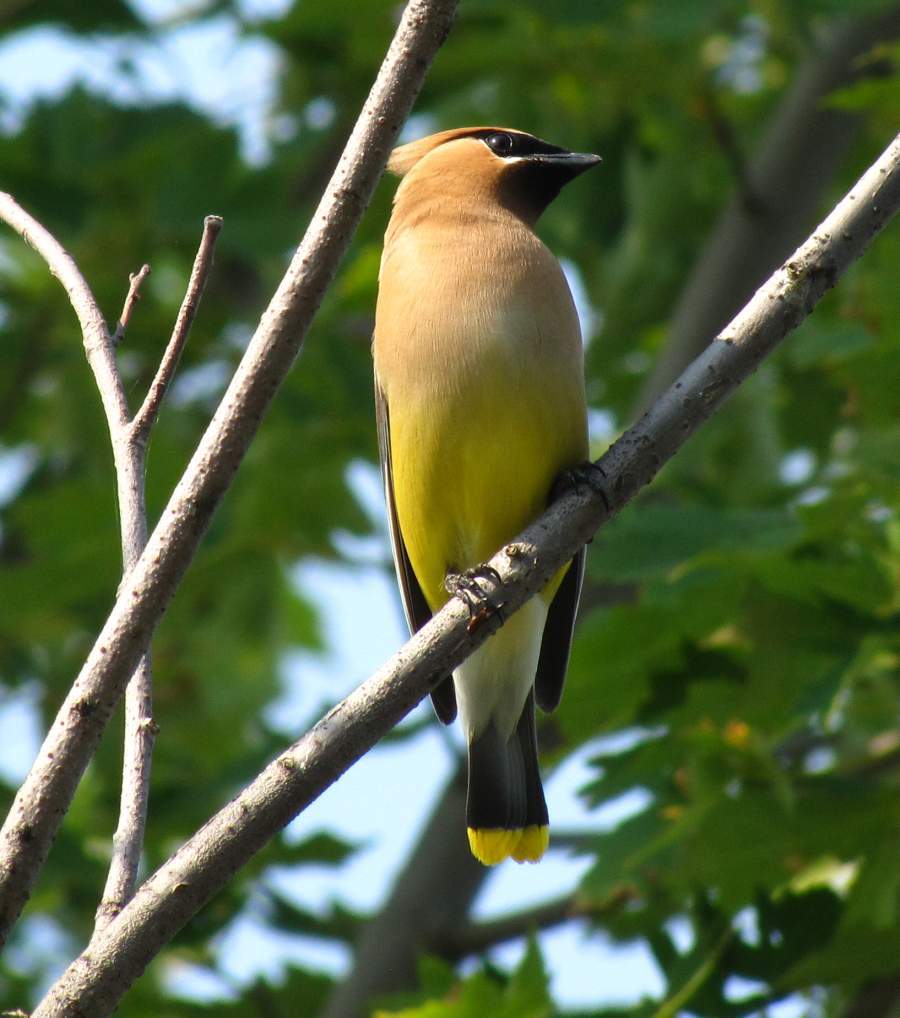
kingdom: Animalia
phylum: Chordata
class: Aves
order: Passeriformes
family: Bombycillidae
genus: Bombycilla
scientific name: Bombycilla cedrorum
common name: Cedar waxwing
